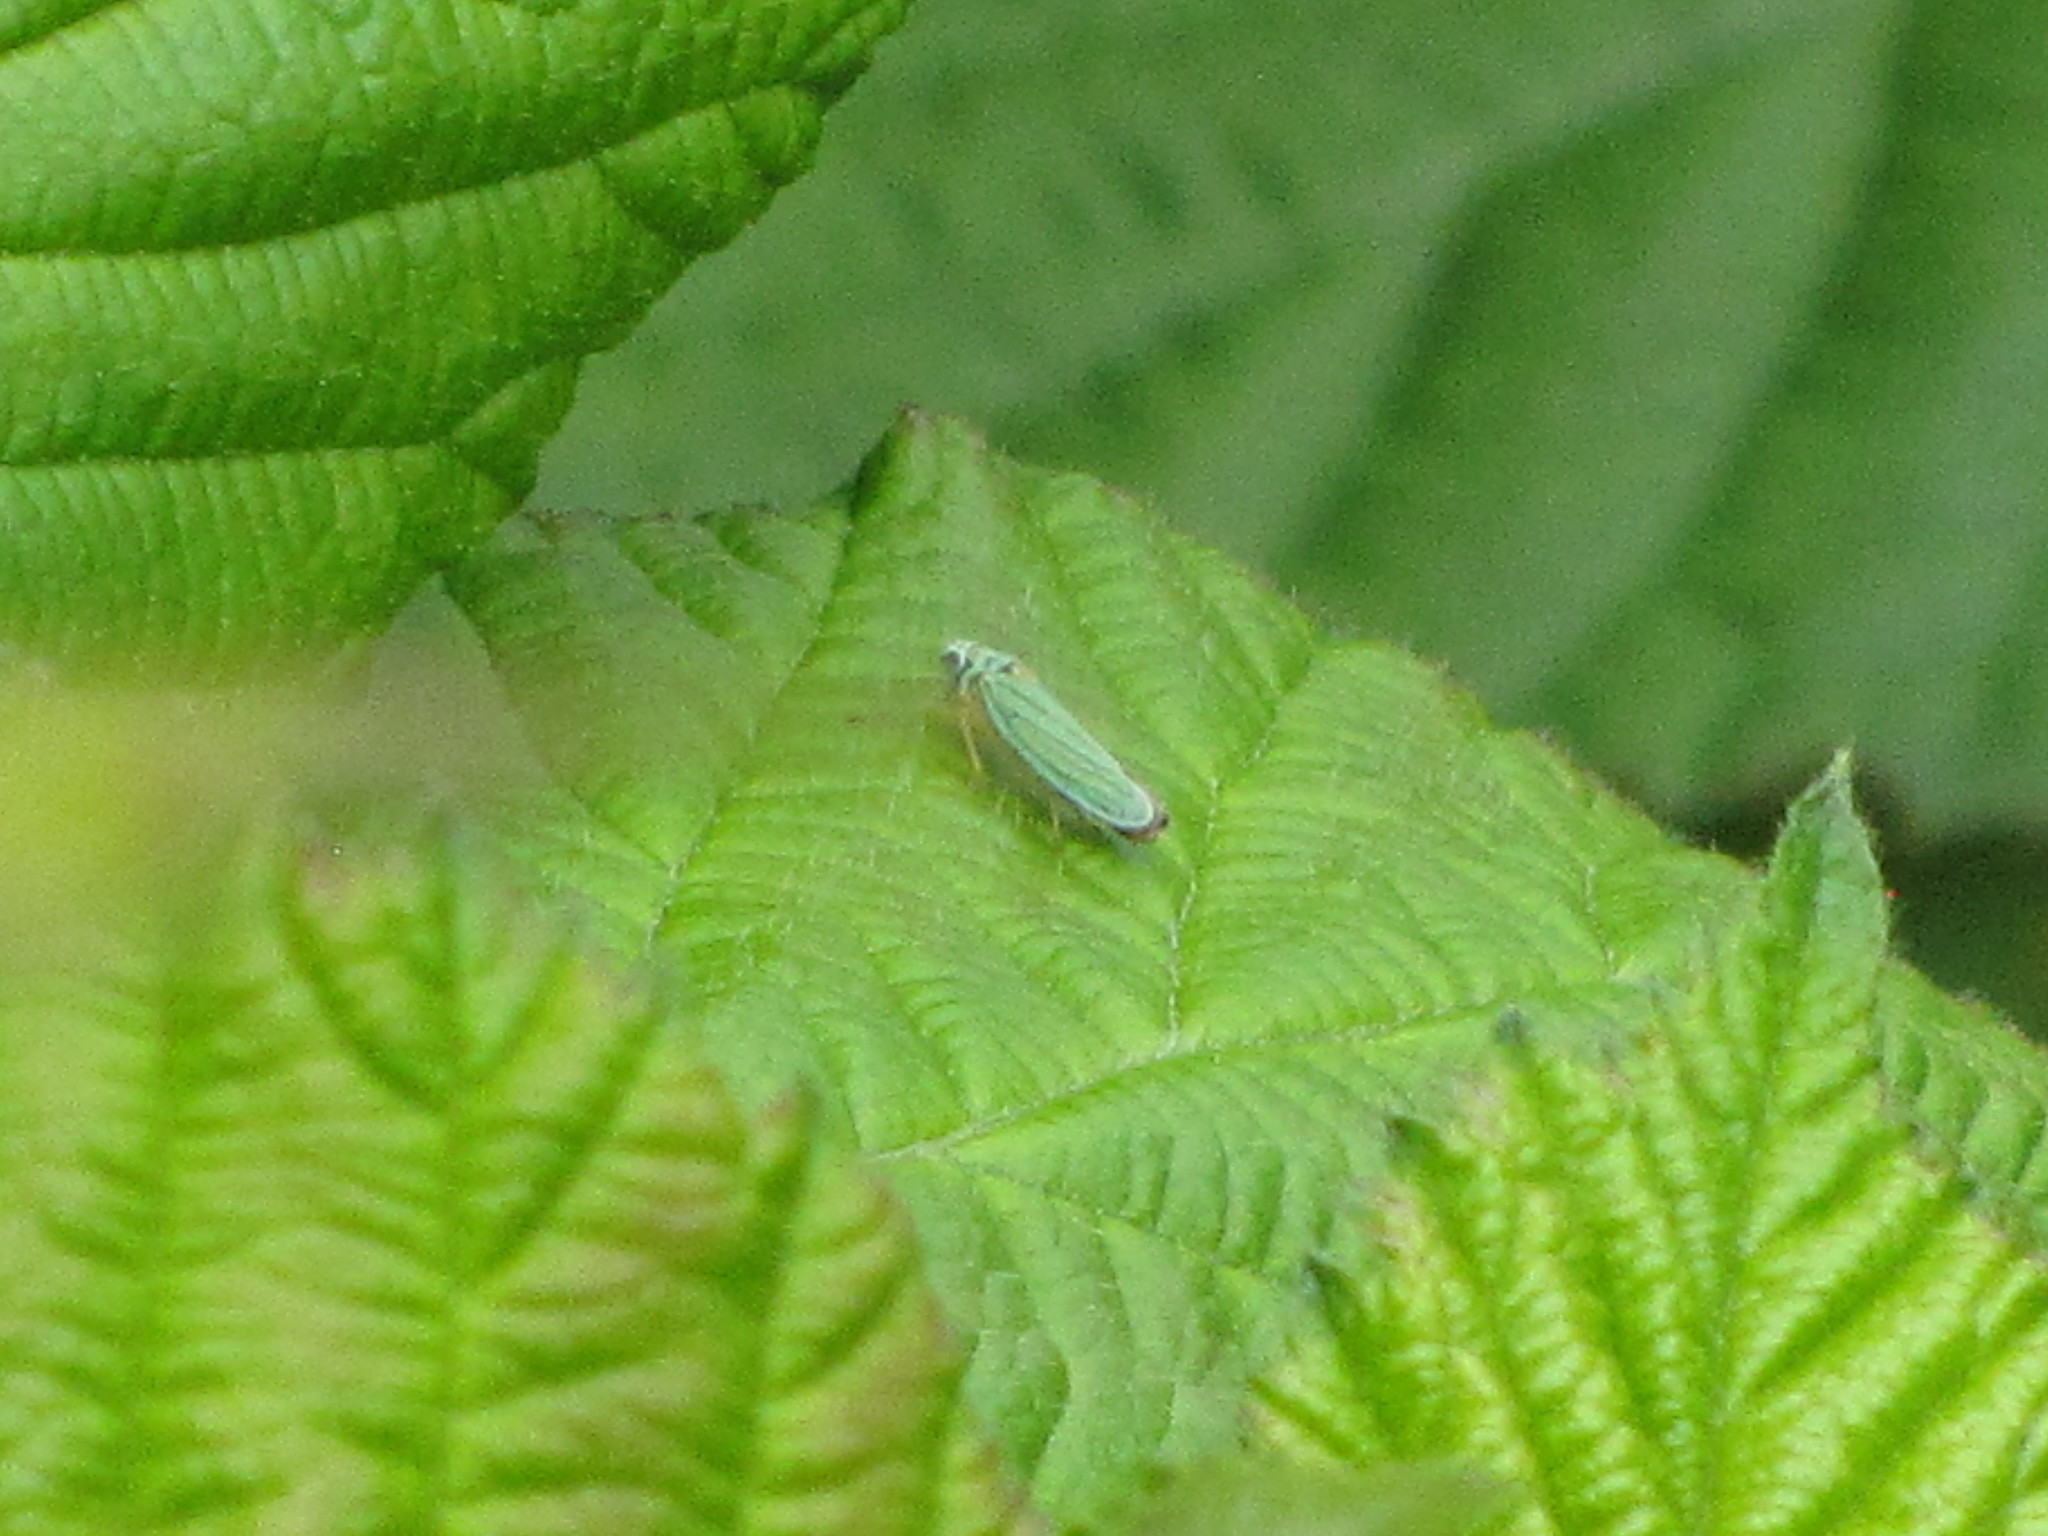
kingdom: Animalia
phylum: Arthropoda
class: Insecta
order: Hemiptera
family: Cicadellidae
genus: Graphocephala
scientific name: Graphocephala atropunctata
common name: Blue-green sharpshooter
